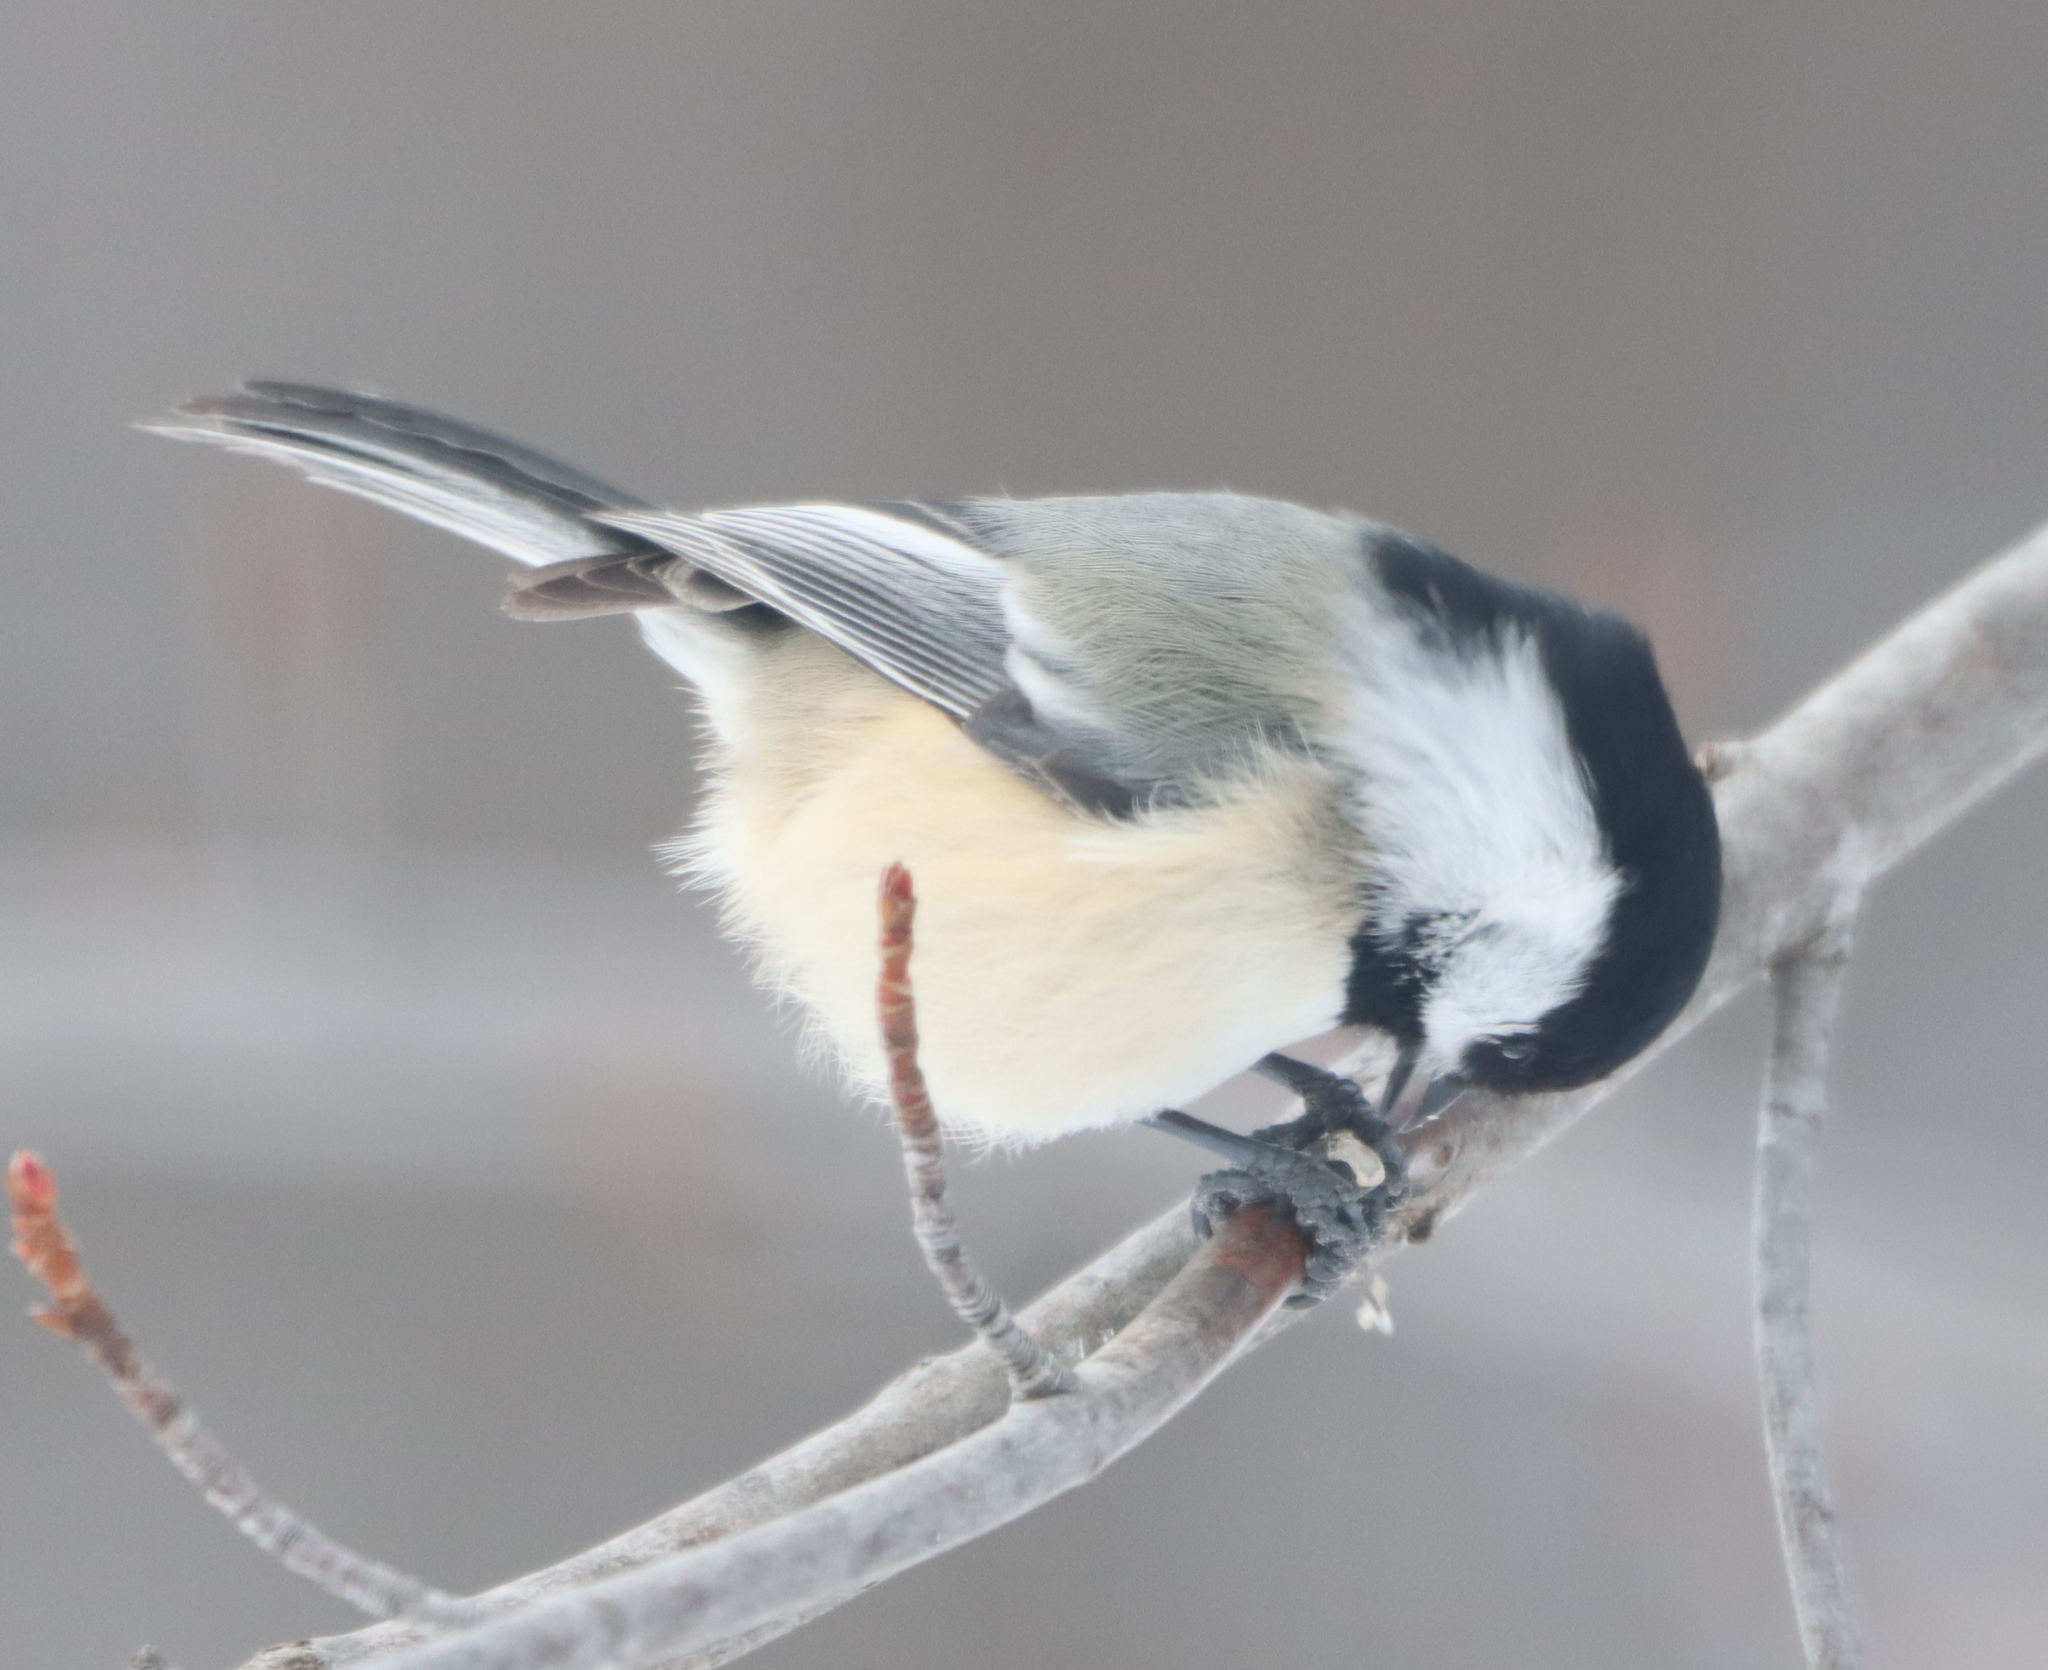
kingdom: Animalia
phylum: Chordata
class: Aves
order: Passeriformes
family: Paridae
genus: Poecile
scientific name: Poecile atricapillus
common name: Black-capped chickadee
